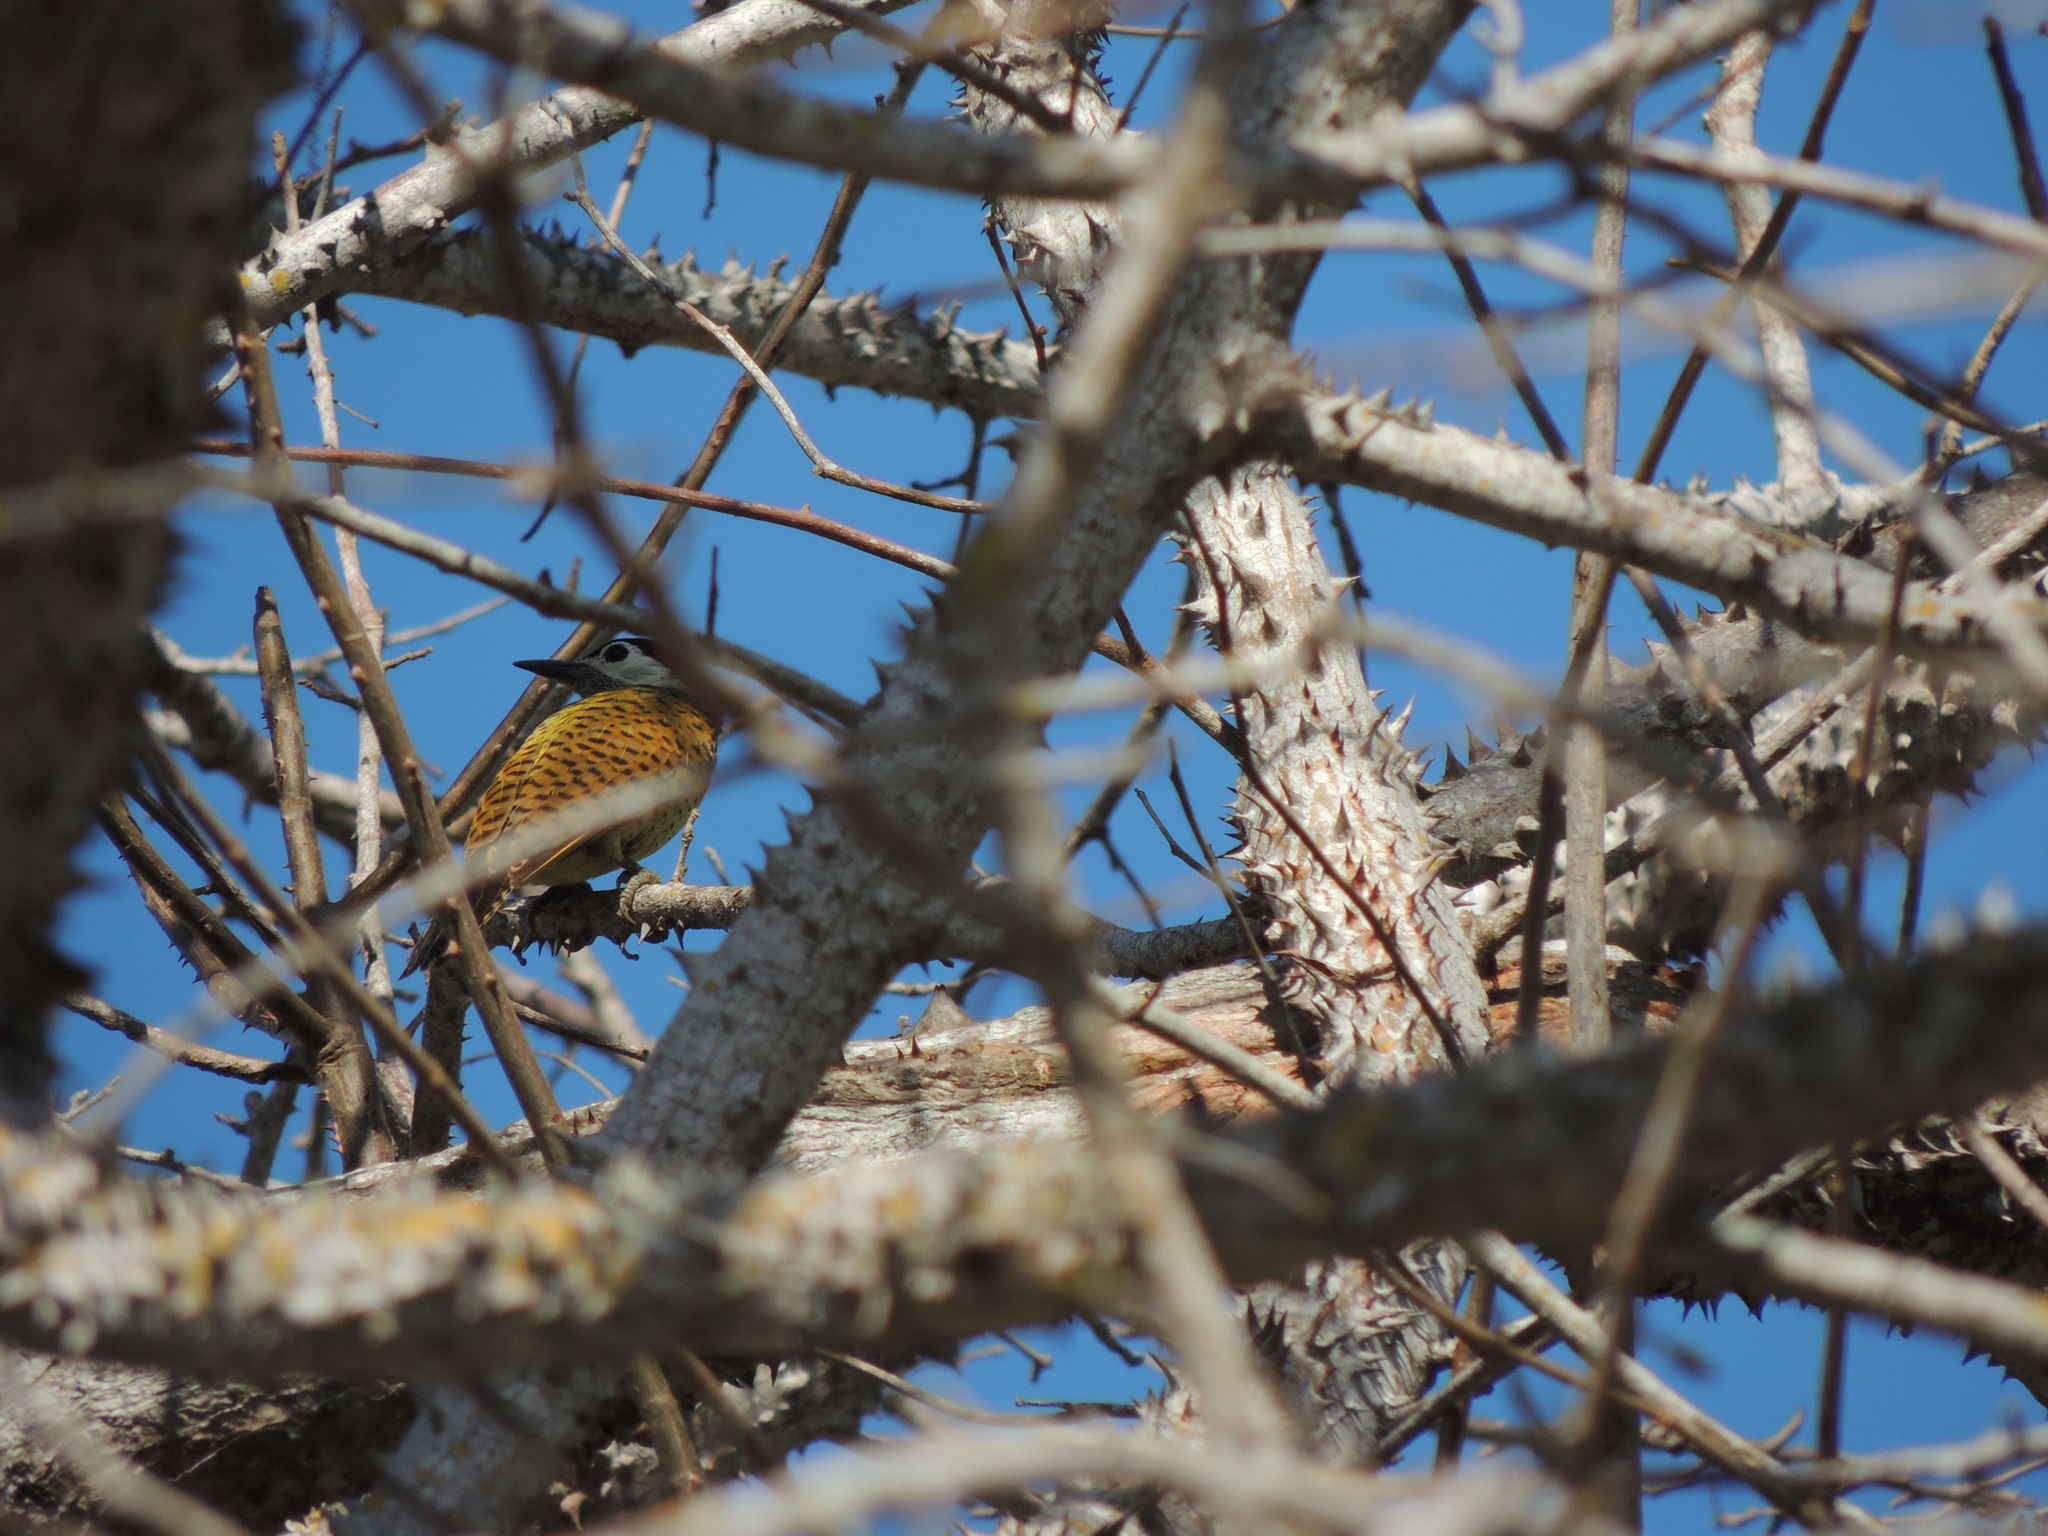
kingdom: Animalia
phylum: Chordata
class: Aves
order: Piciformes
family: Picidae
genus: Colaptes
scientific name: Colaptes punctigula
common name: Spot-breasted woodpecker
